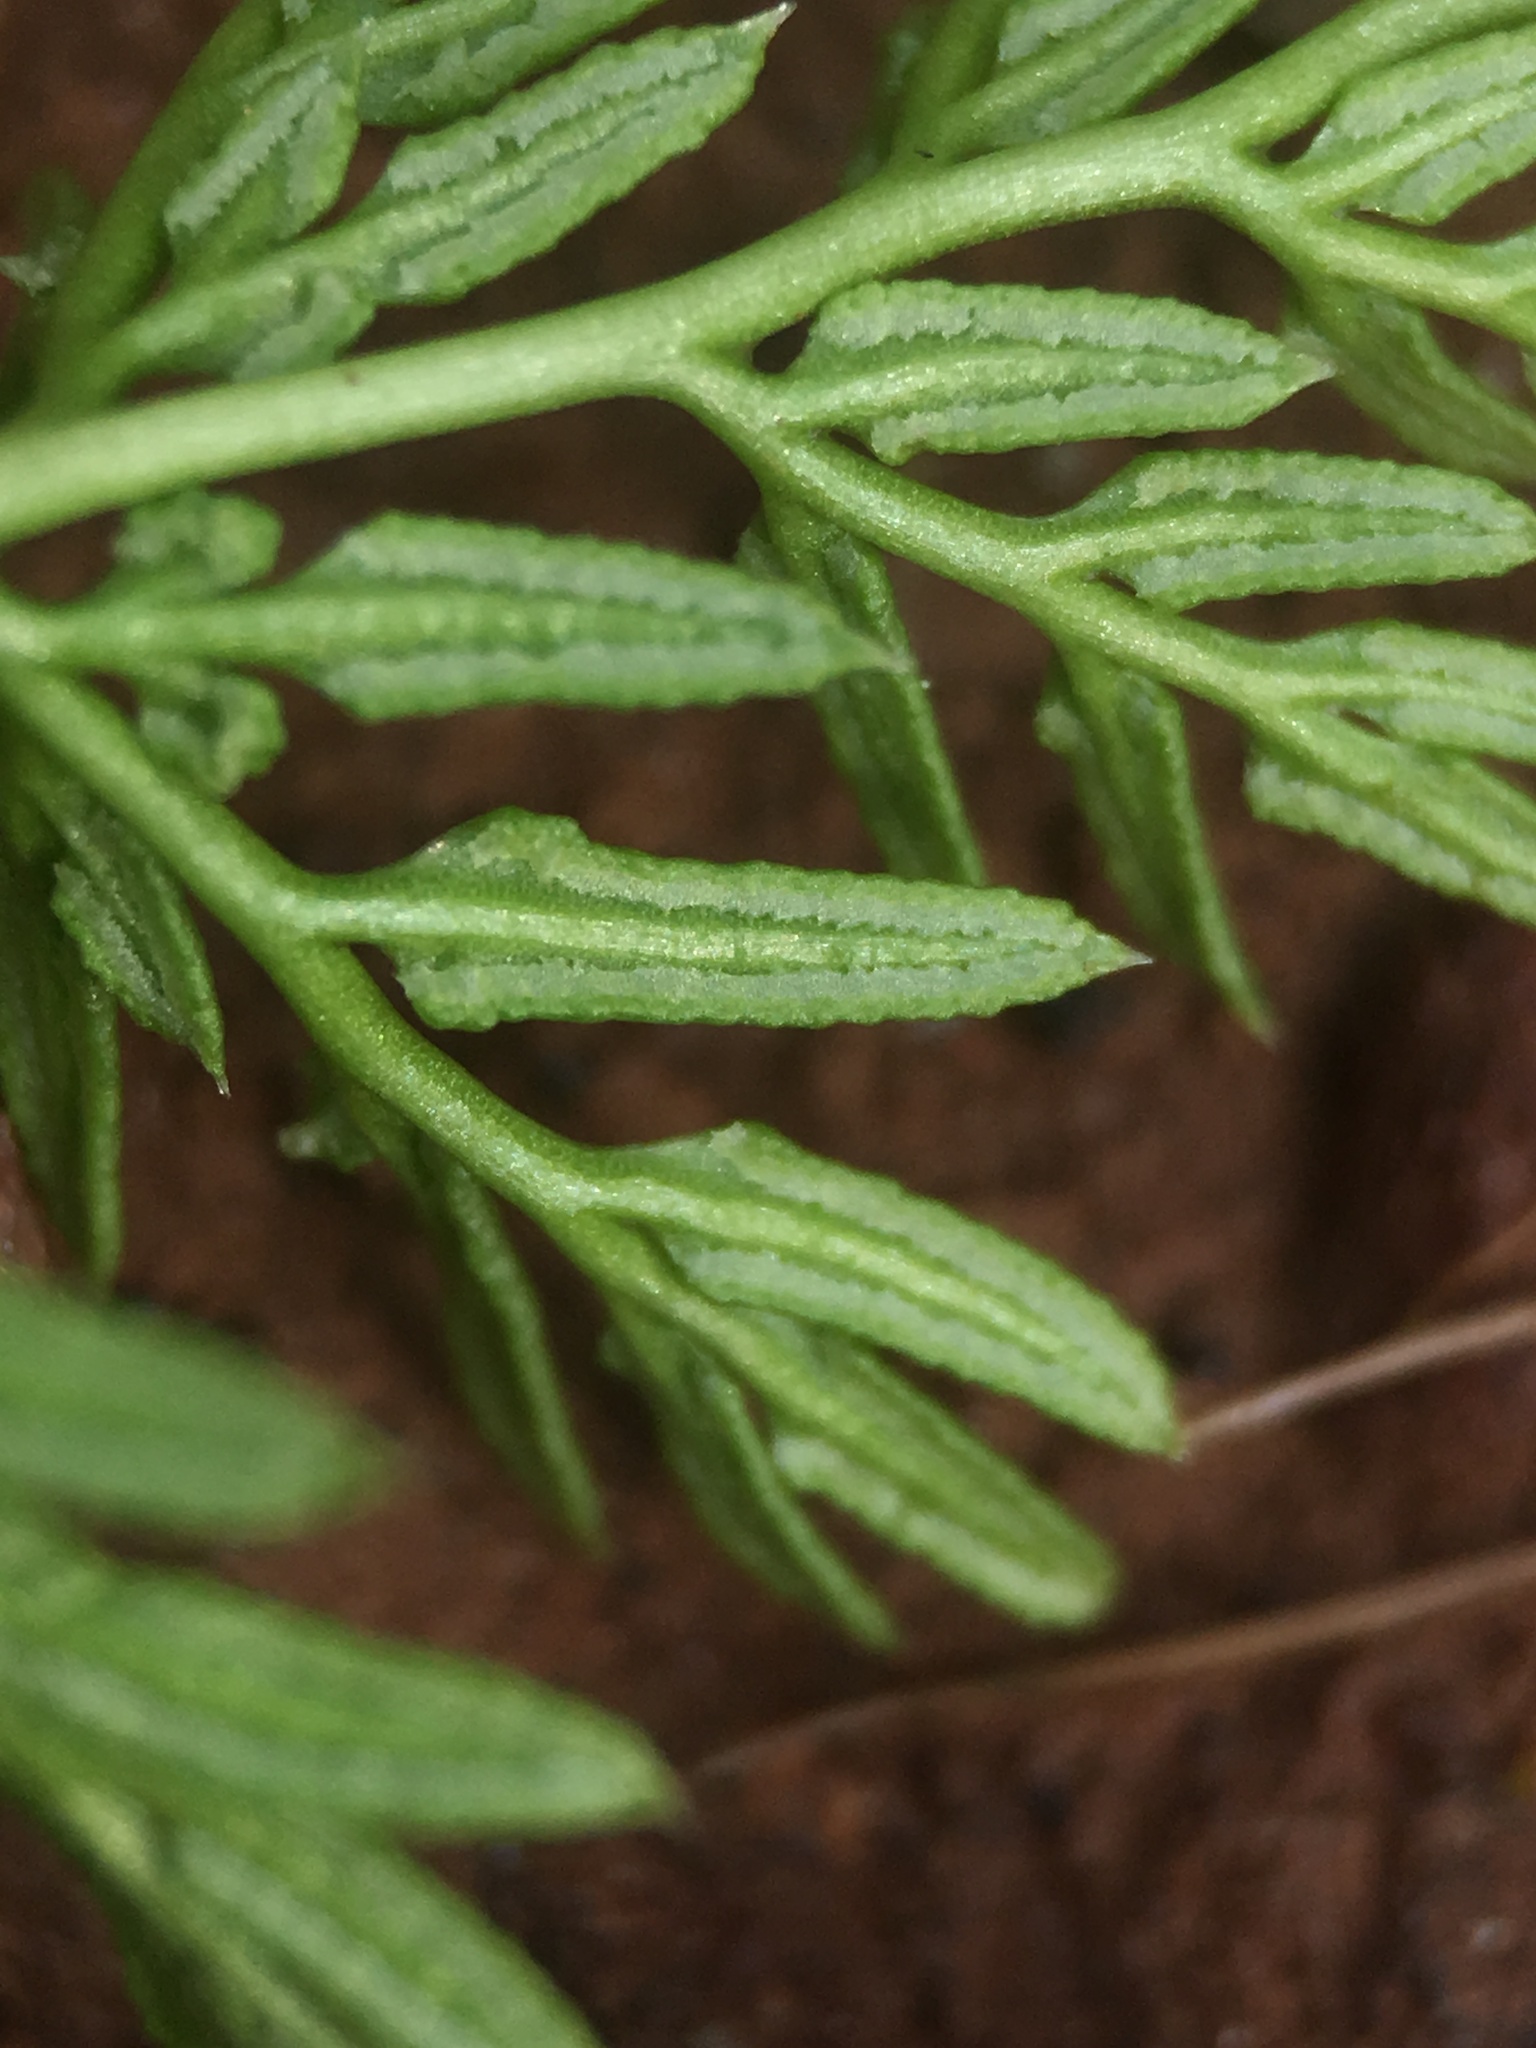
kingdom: Plantae
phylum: Tracheophyta
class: Polypodiopsida
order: Polypodiales
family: Pteridaceae
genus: Aspidotis
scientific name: Aspidotis densa
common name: Indian's dream
